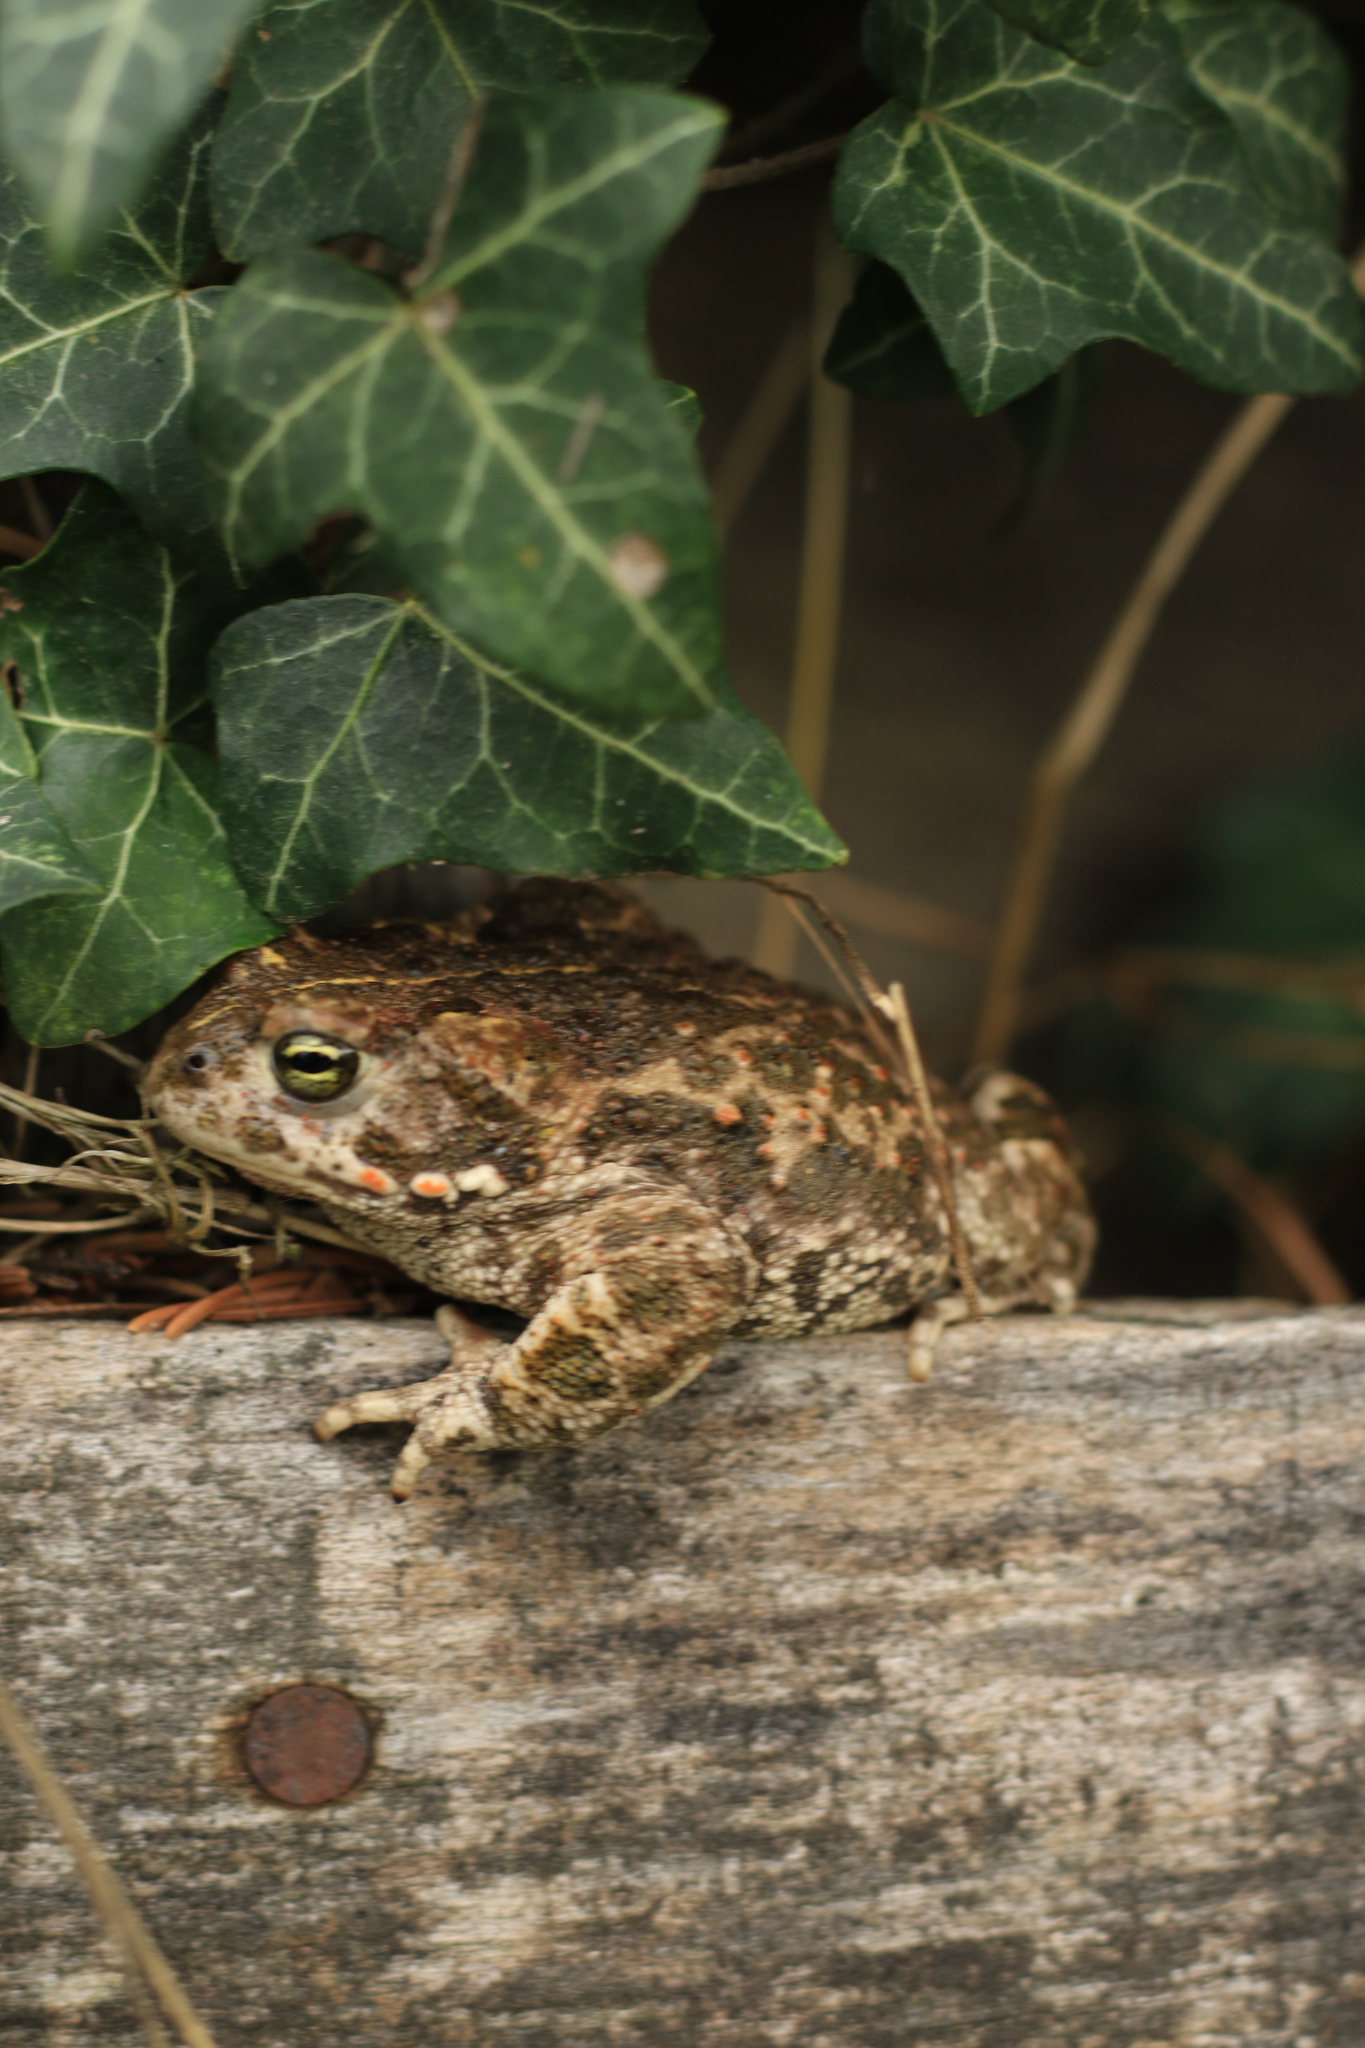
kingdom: Animalia
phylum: Chordata
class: Amphibia
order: Anura
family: Bufonidae
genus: Epidalea
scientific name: Epidalea calamita
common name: Natterjack toad
